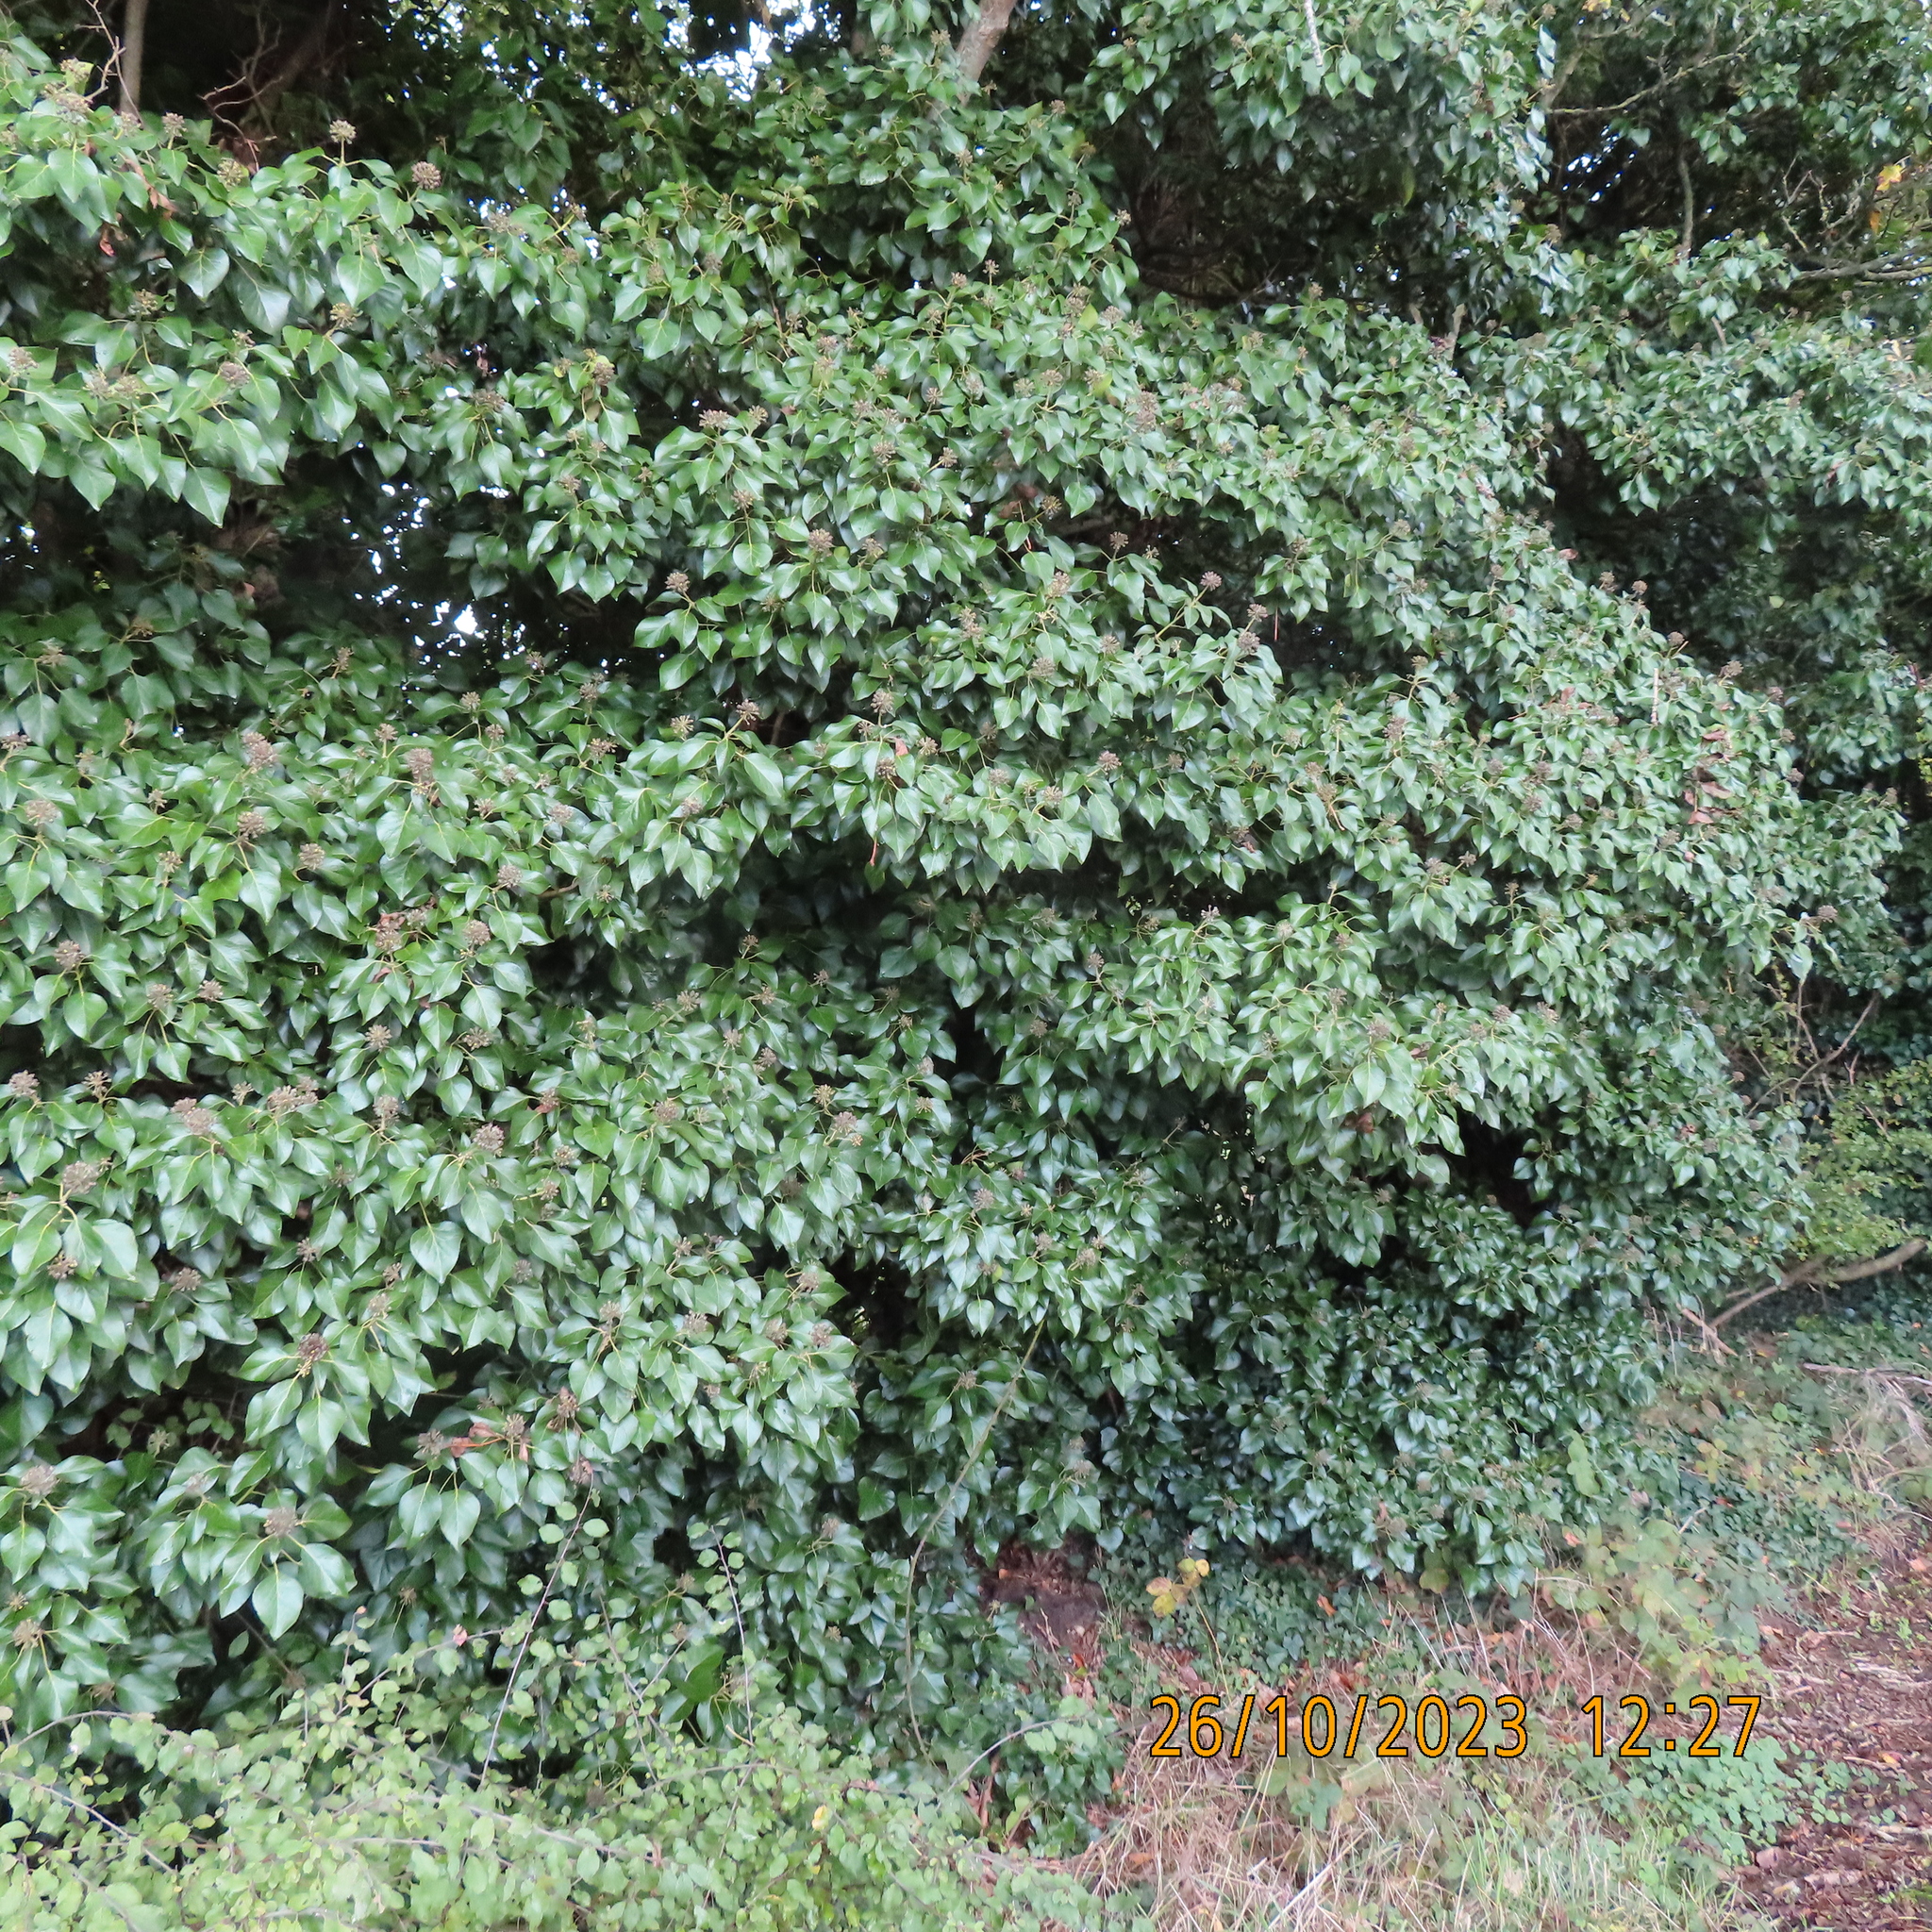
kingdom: Plantae
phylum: Tracheophyta
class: Magnoliopsida
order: Apiales
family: Araliaceae
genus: Hedera
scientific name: Hedera helix
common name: Ivy
